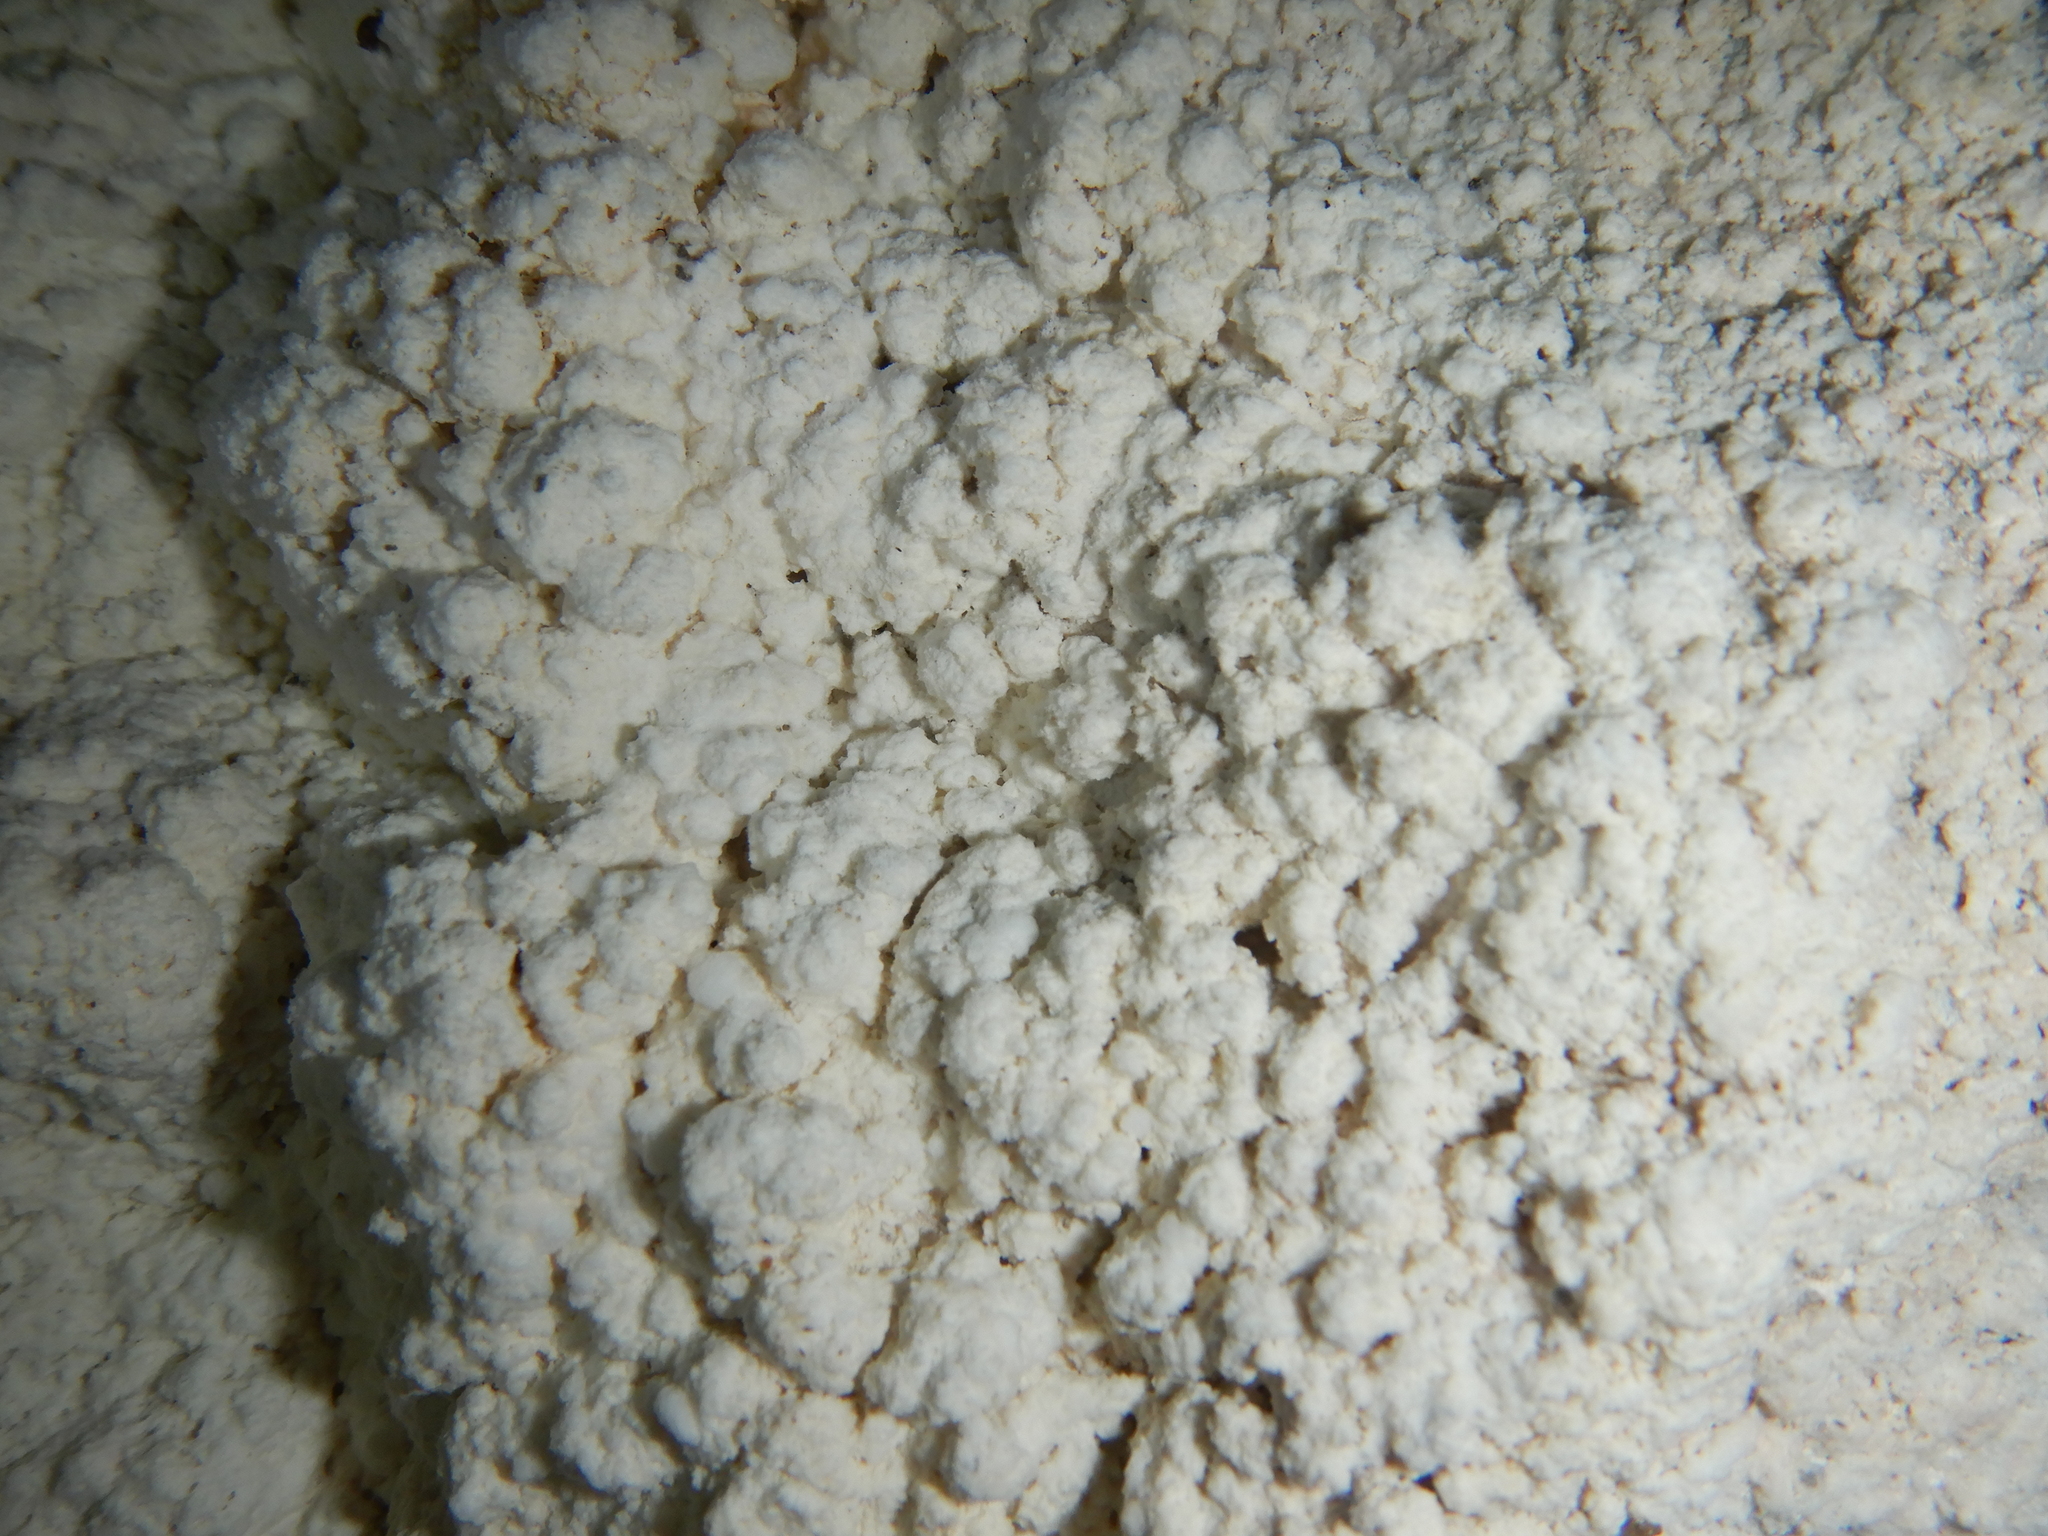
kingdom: Bacteria
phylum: Proteobacteria
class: Gammaproteobacteria
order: Burkholderiales
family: Burkholderiaceae
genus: Macromonas
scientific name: Macromonas bipunctata
